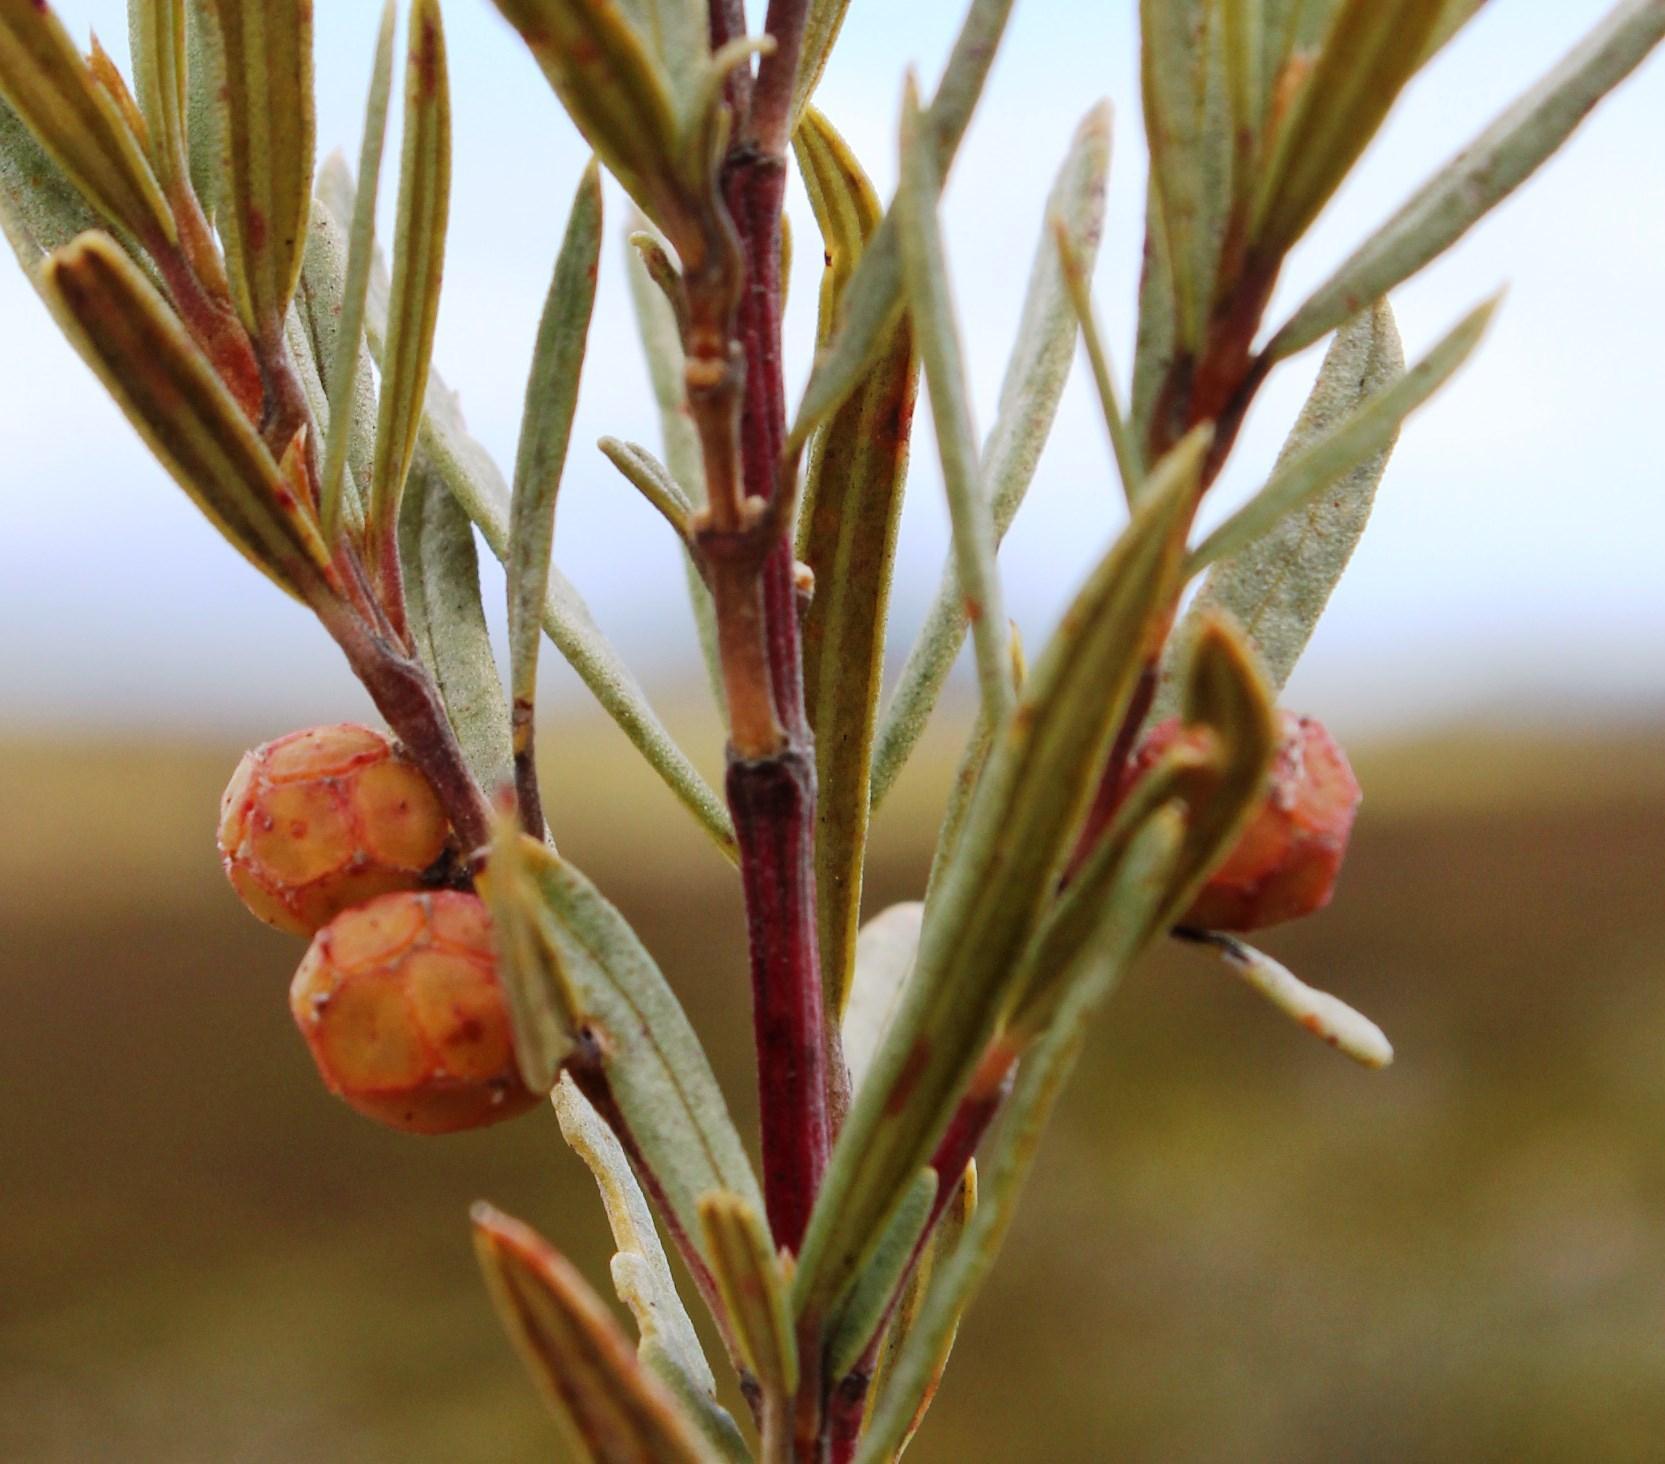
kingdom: Plantae
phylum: Tracheophyta
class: Magnoliopsida
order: Cornales
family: Grubbiaceae
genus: Grubbia
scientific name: Grubbia tomentosa
